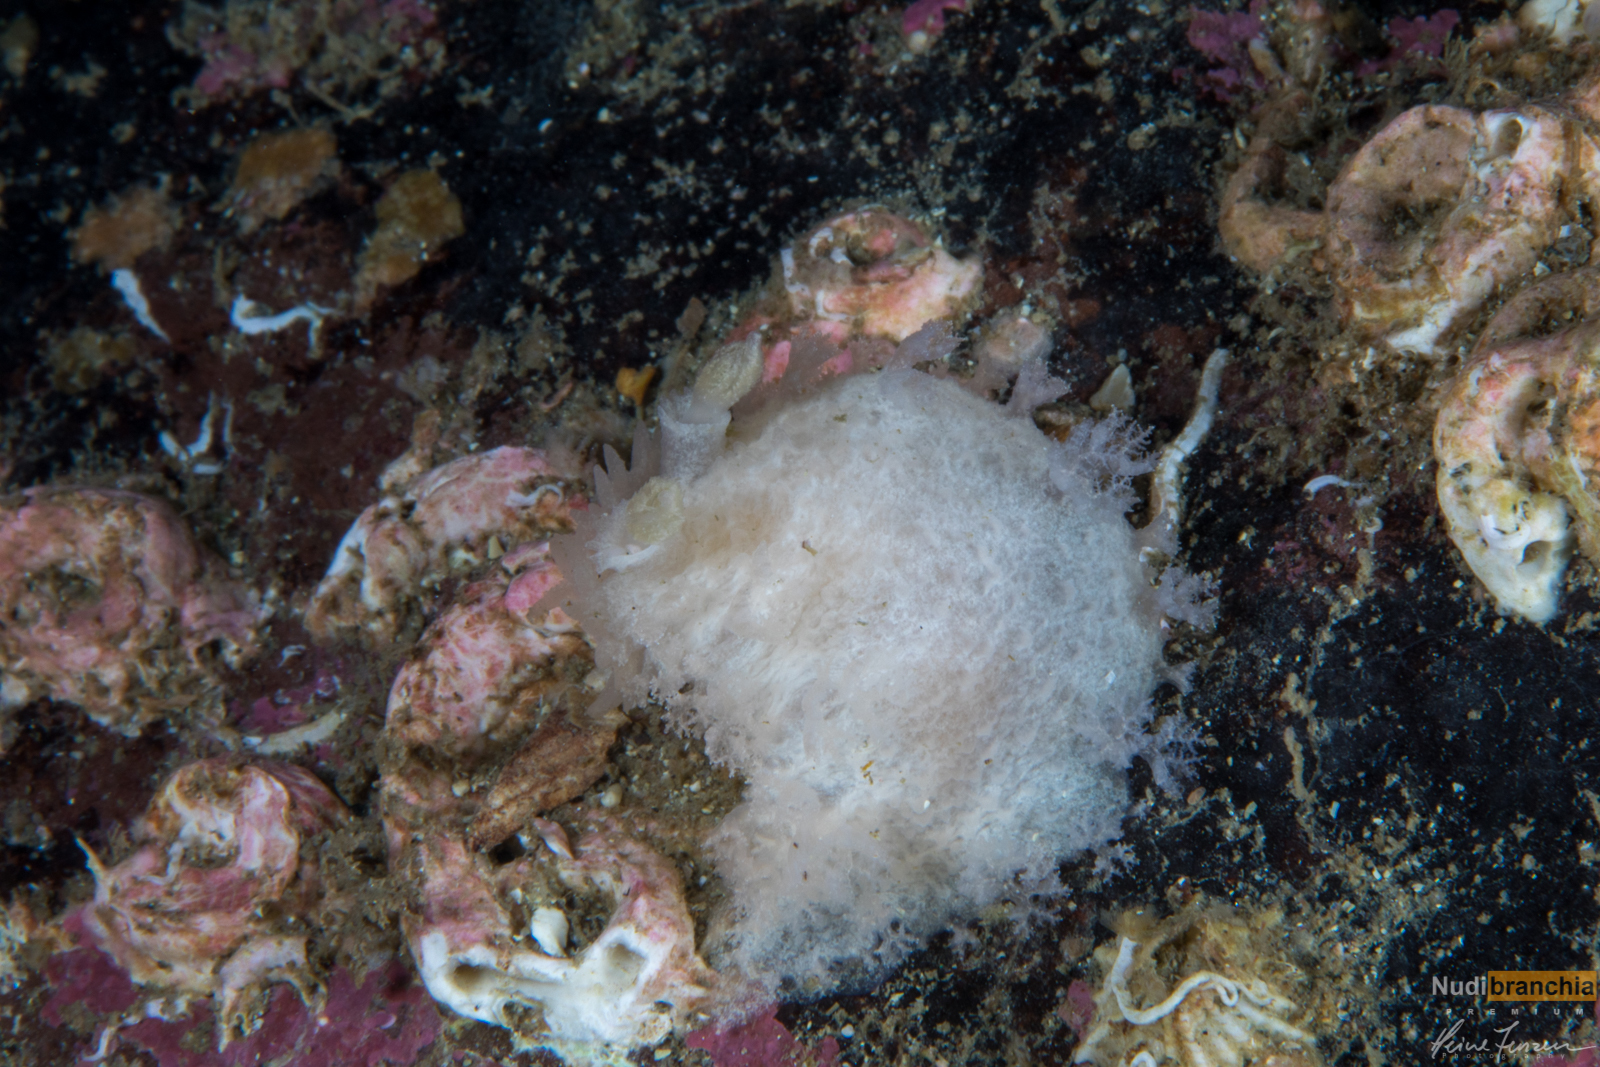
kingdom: Animalia
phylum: Mollusca
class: Gastropoda
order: Nudibranchia
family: Tritoniidae
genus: Tritonia
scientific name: Tritonia hombergii
